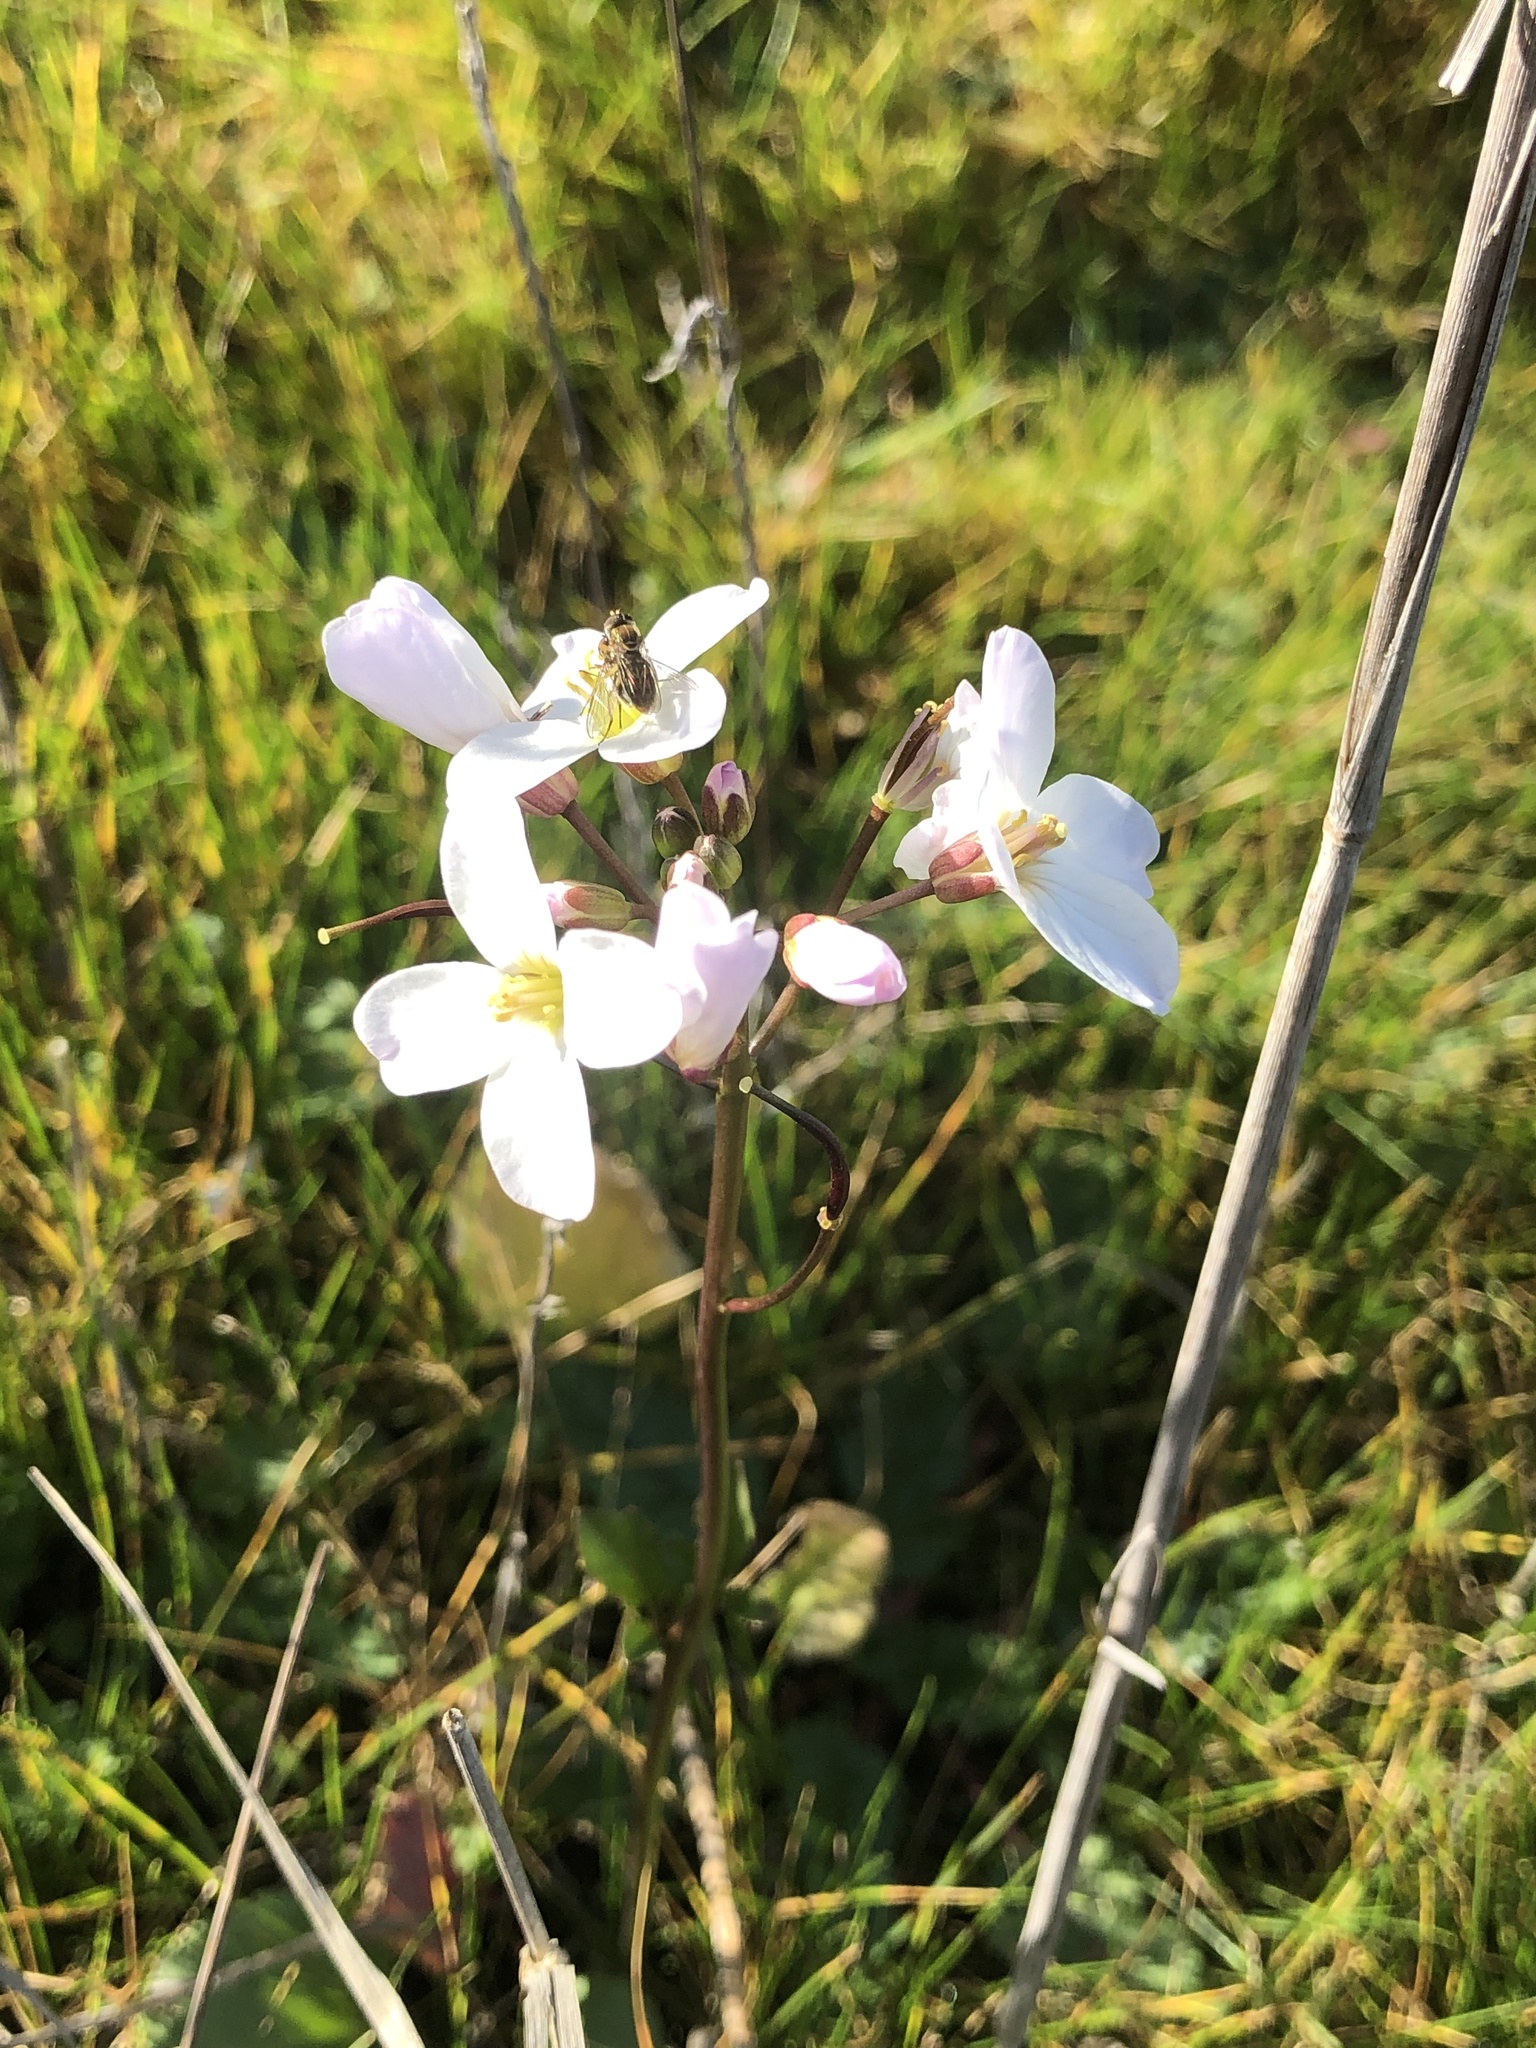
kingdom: Plantae
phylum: Tracheophyta
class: Magnoliopsida
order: Brassicales
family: Brassicaceae
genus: Cardamine
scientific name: Cardamine californica
